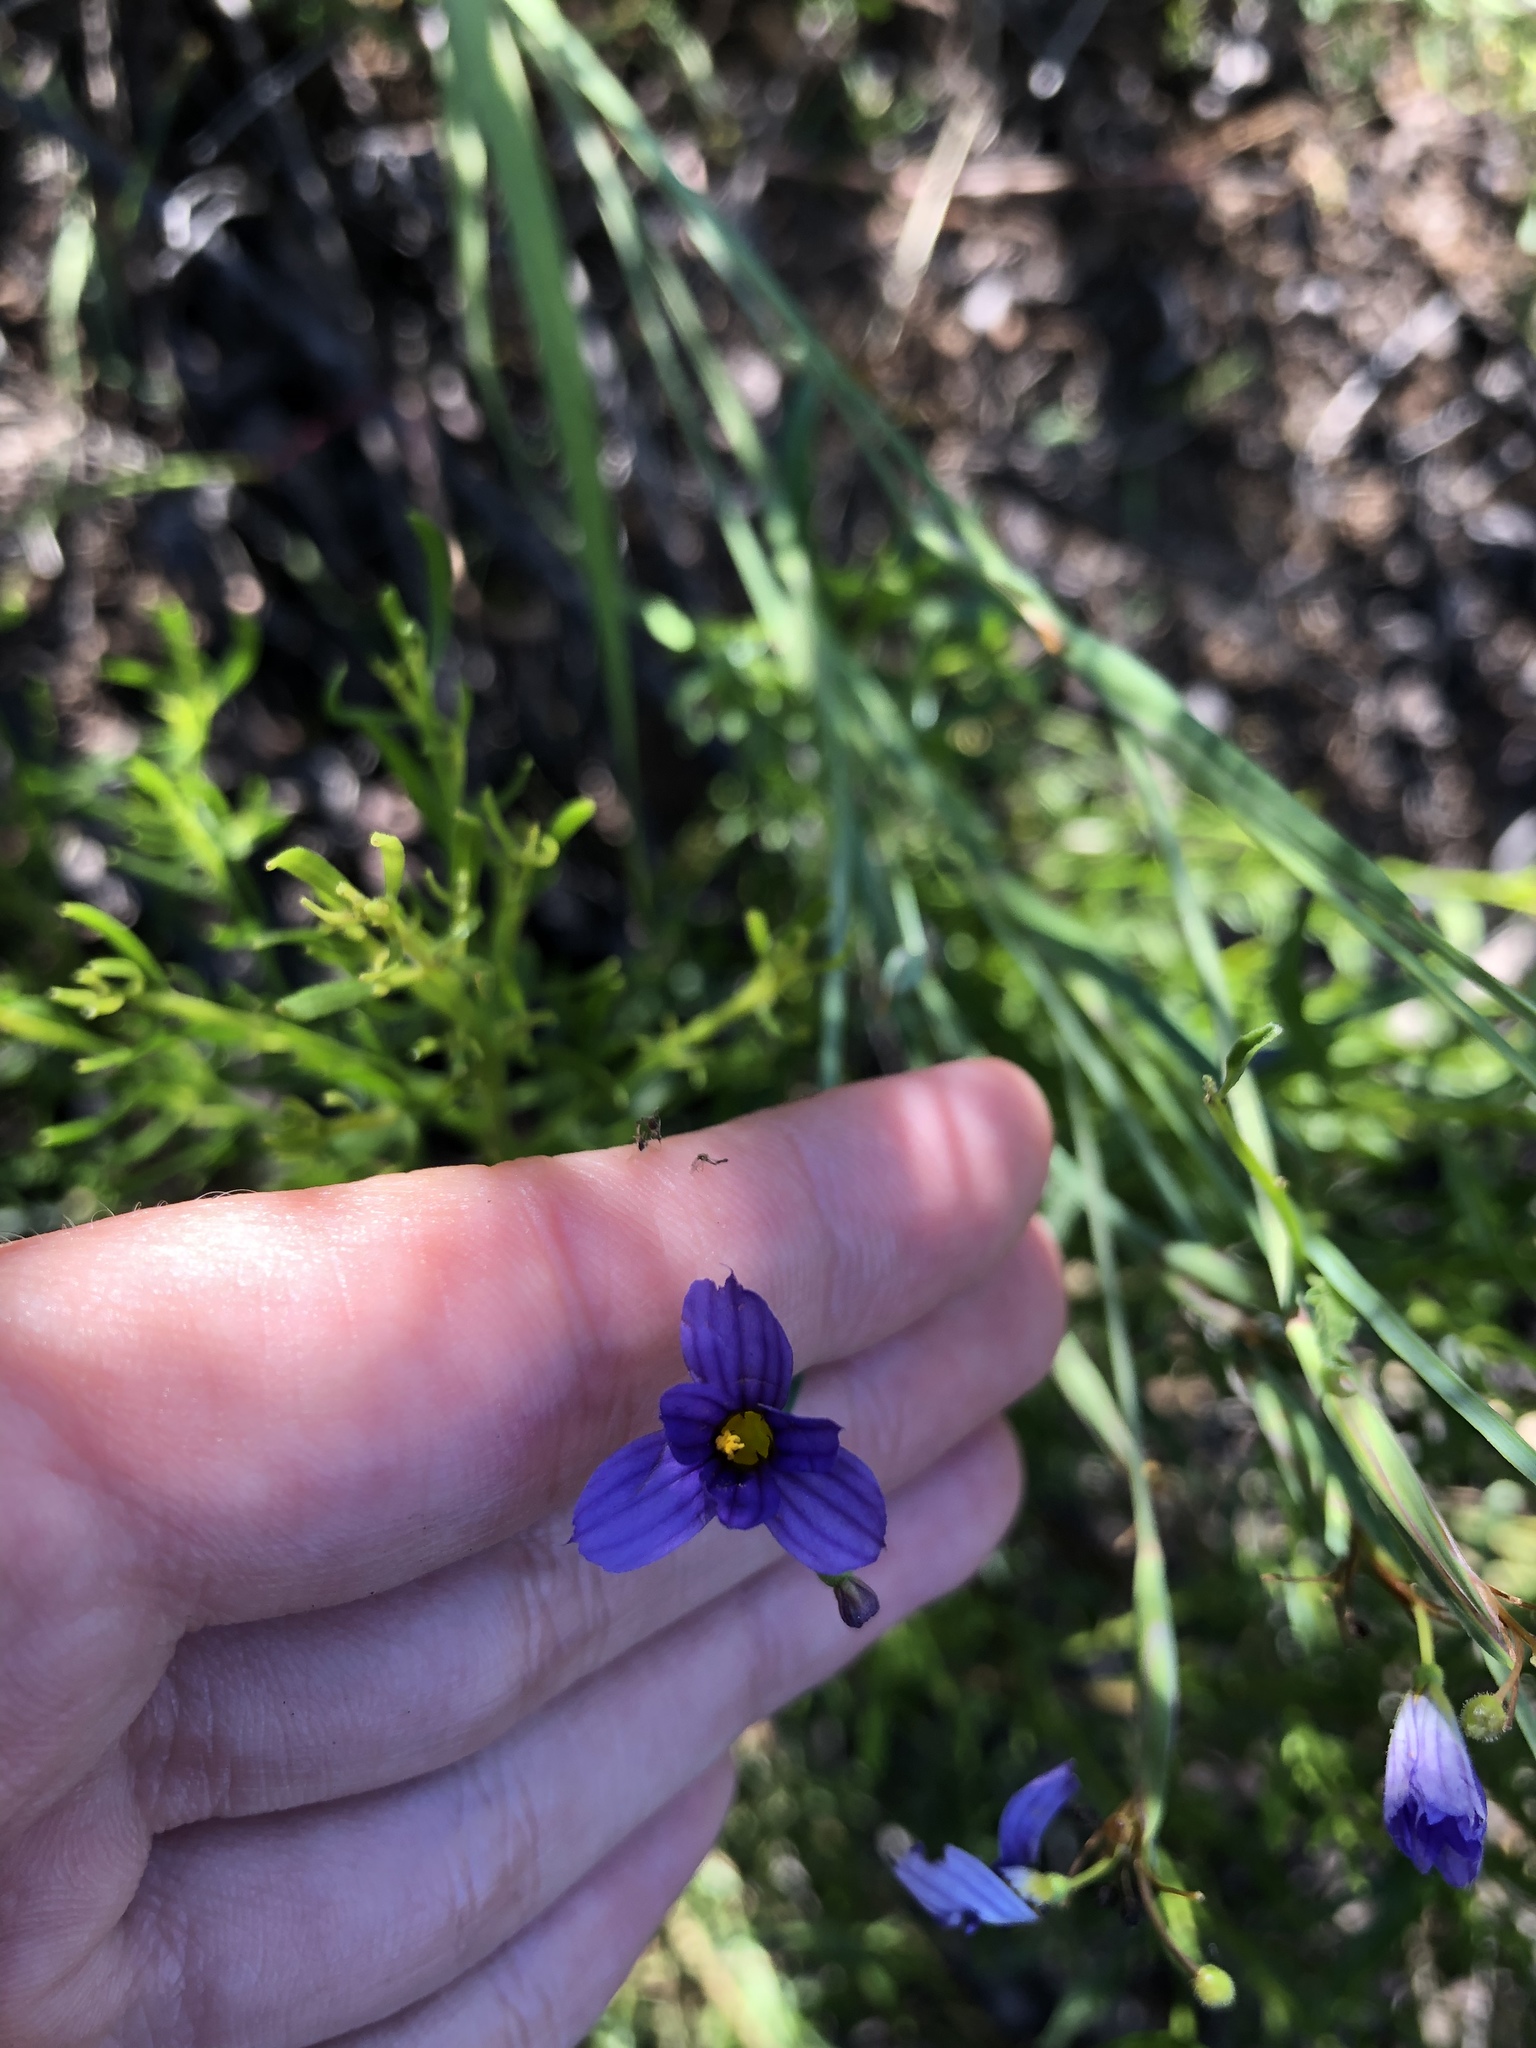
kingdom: Plantae
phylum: Tracheophyta
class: Liliopsida
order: Asparagales
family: Iridaceae
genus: Sisyrinchium
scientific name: Sisyrinchium bellum
